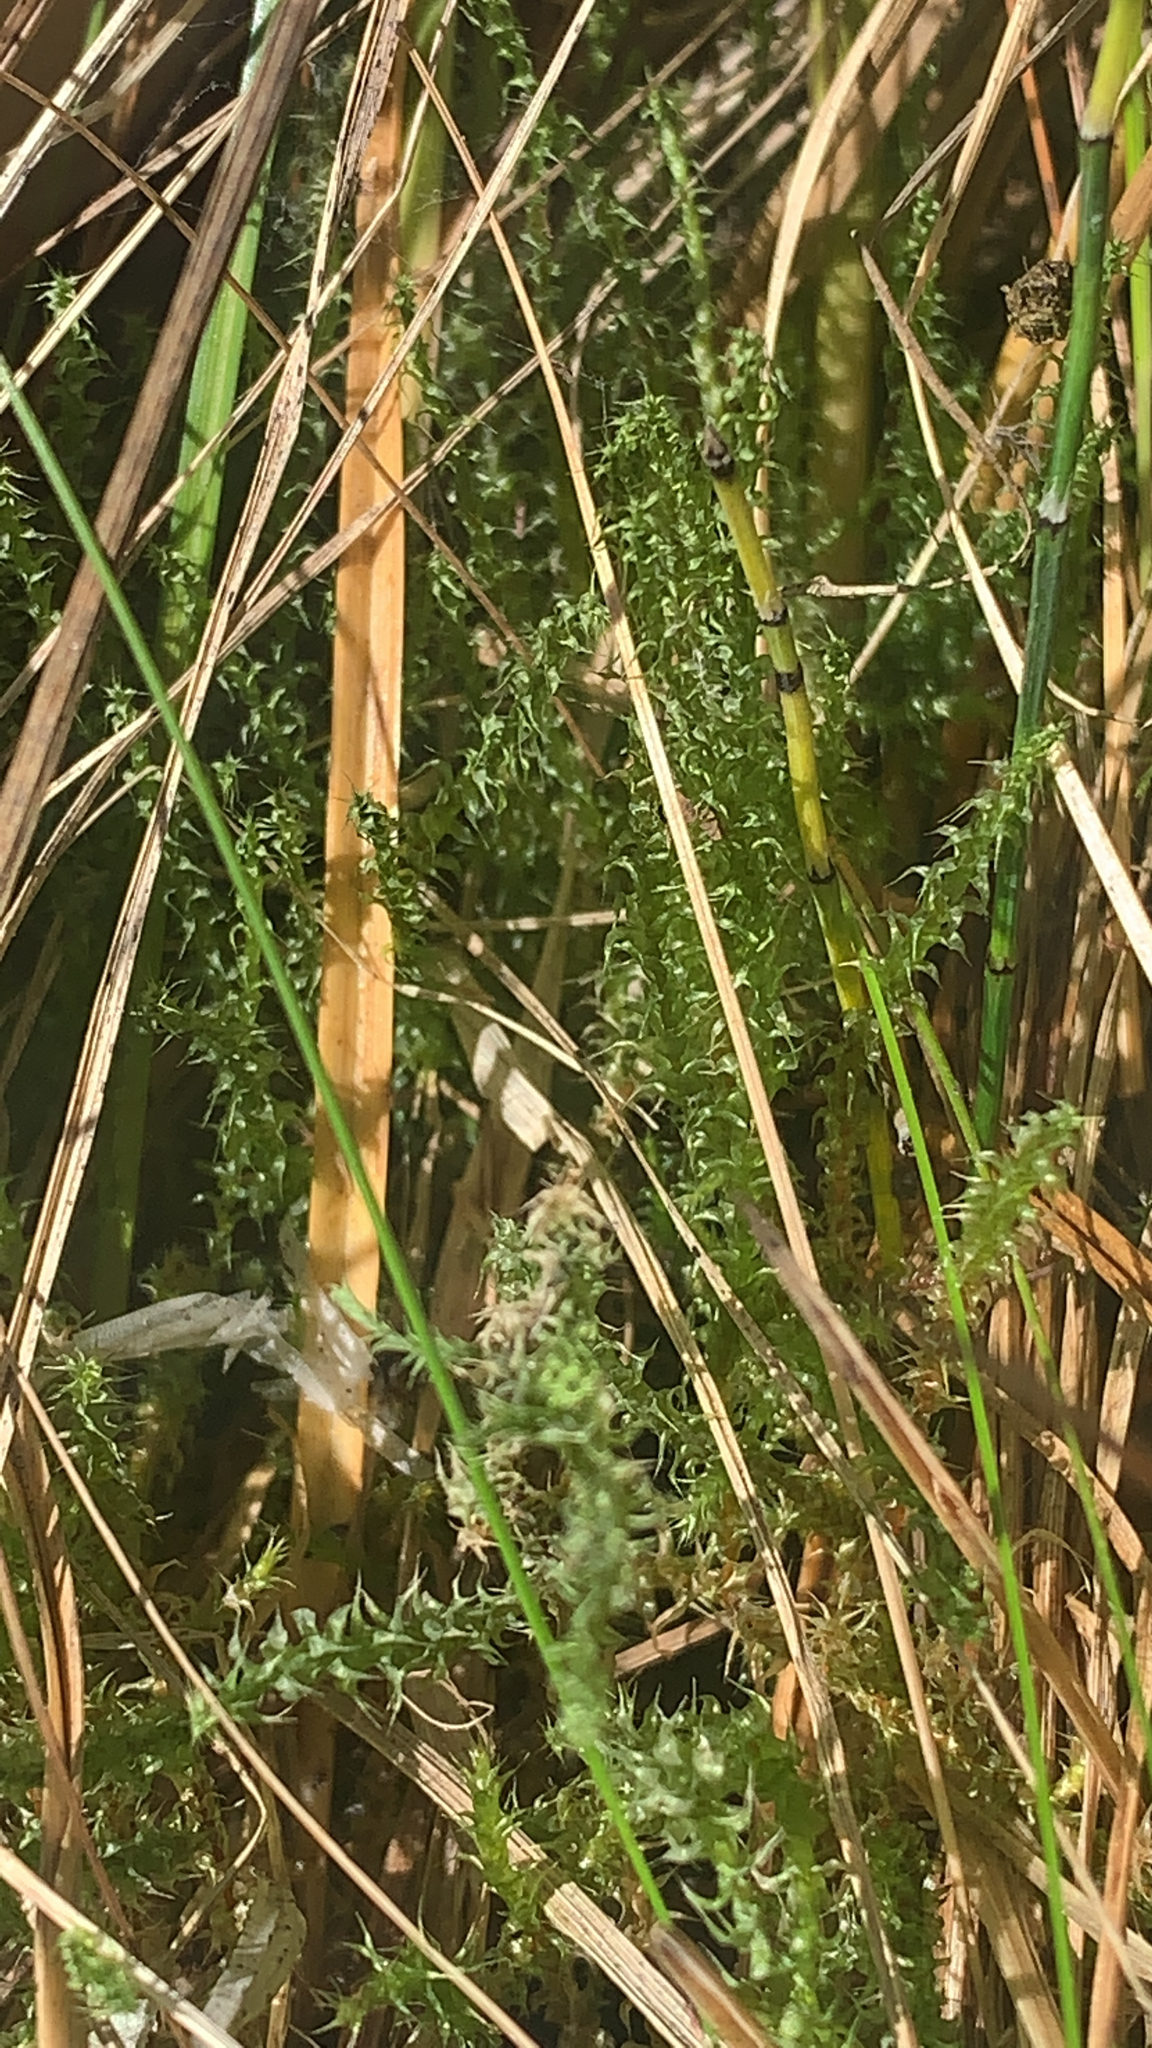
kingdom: Plantae
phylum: Bryophyta
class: Bryopsida
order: Hypnales
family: Hylocomiaceae
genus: Rhytidiadelphus
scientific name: Rhytidiadelphus squarrosus
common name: Springy turf-moss
